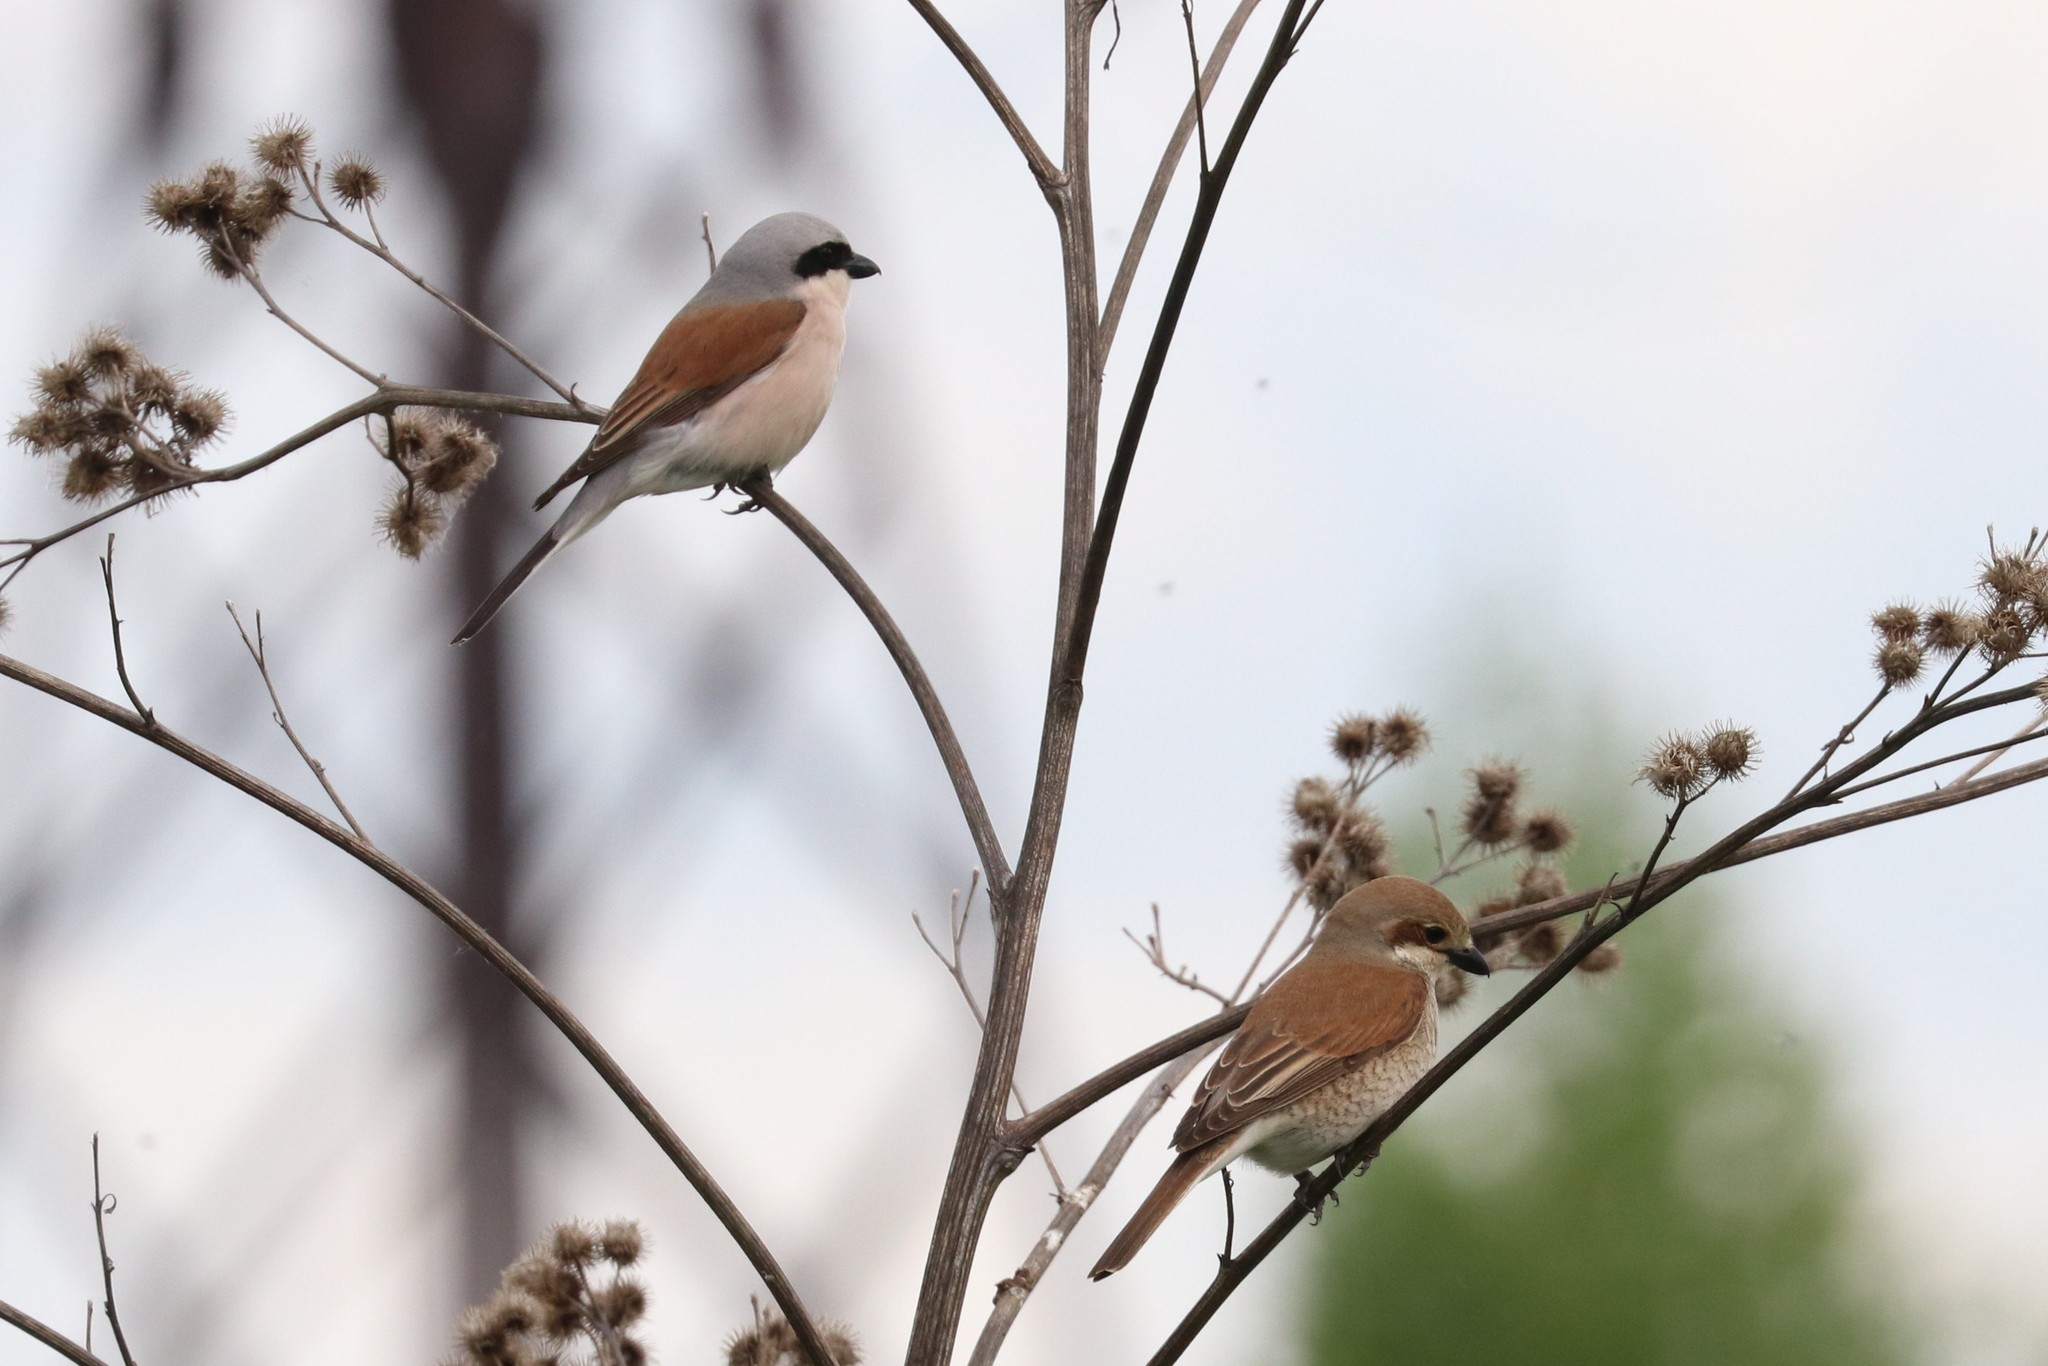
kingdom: Animalia
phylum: Chordata
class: Aves
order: Passeriformes
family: Laniidae
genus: Lanius
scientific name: Lanius collurio
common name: Red-backed shrike
